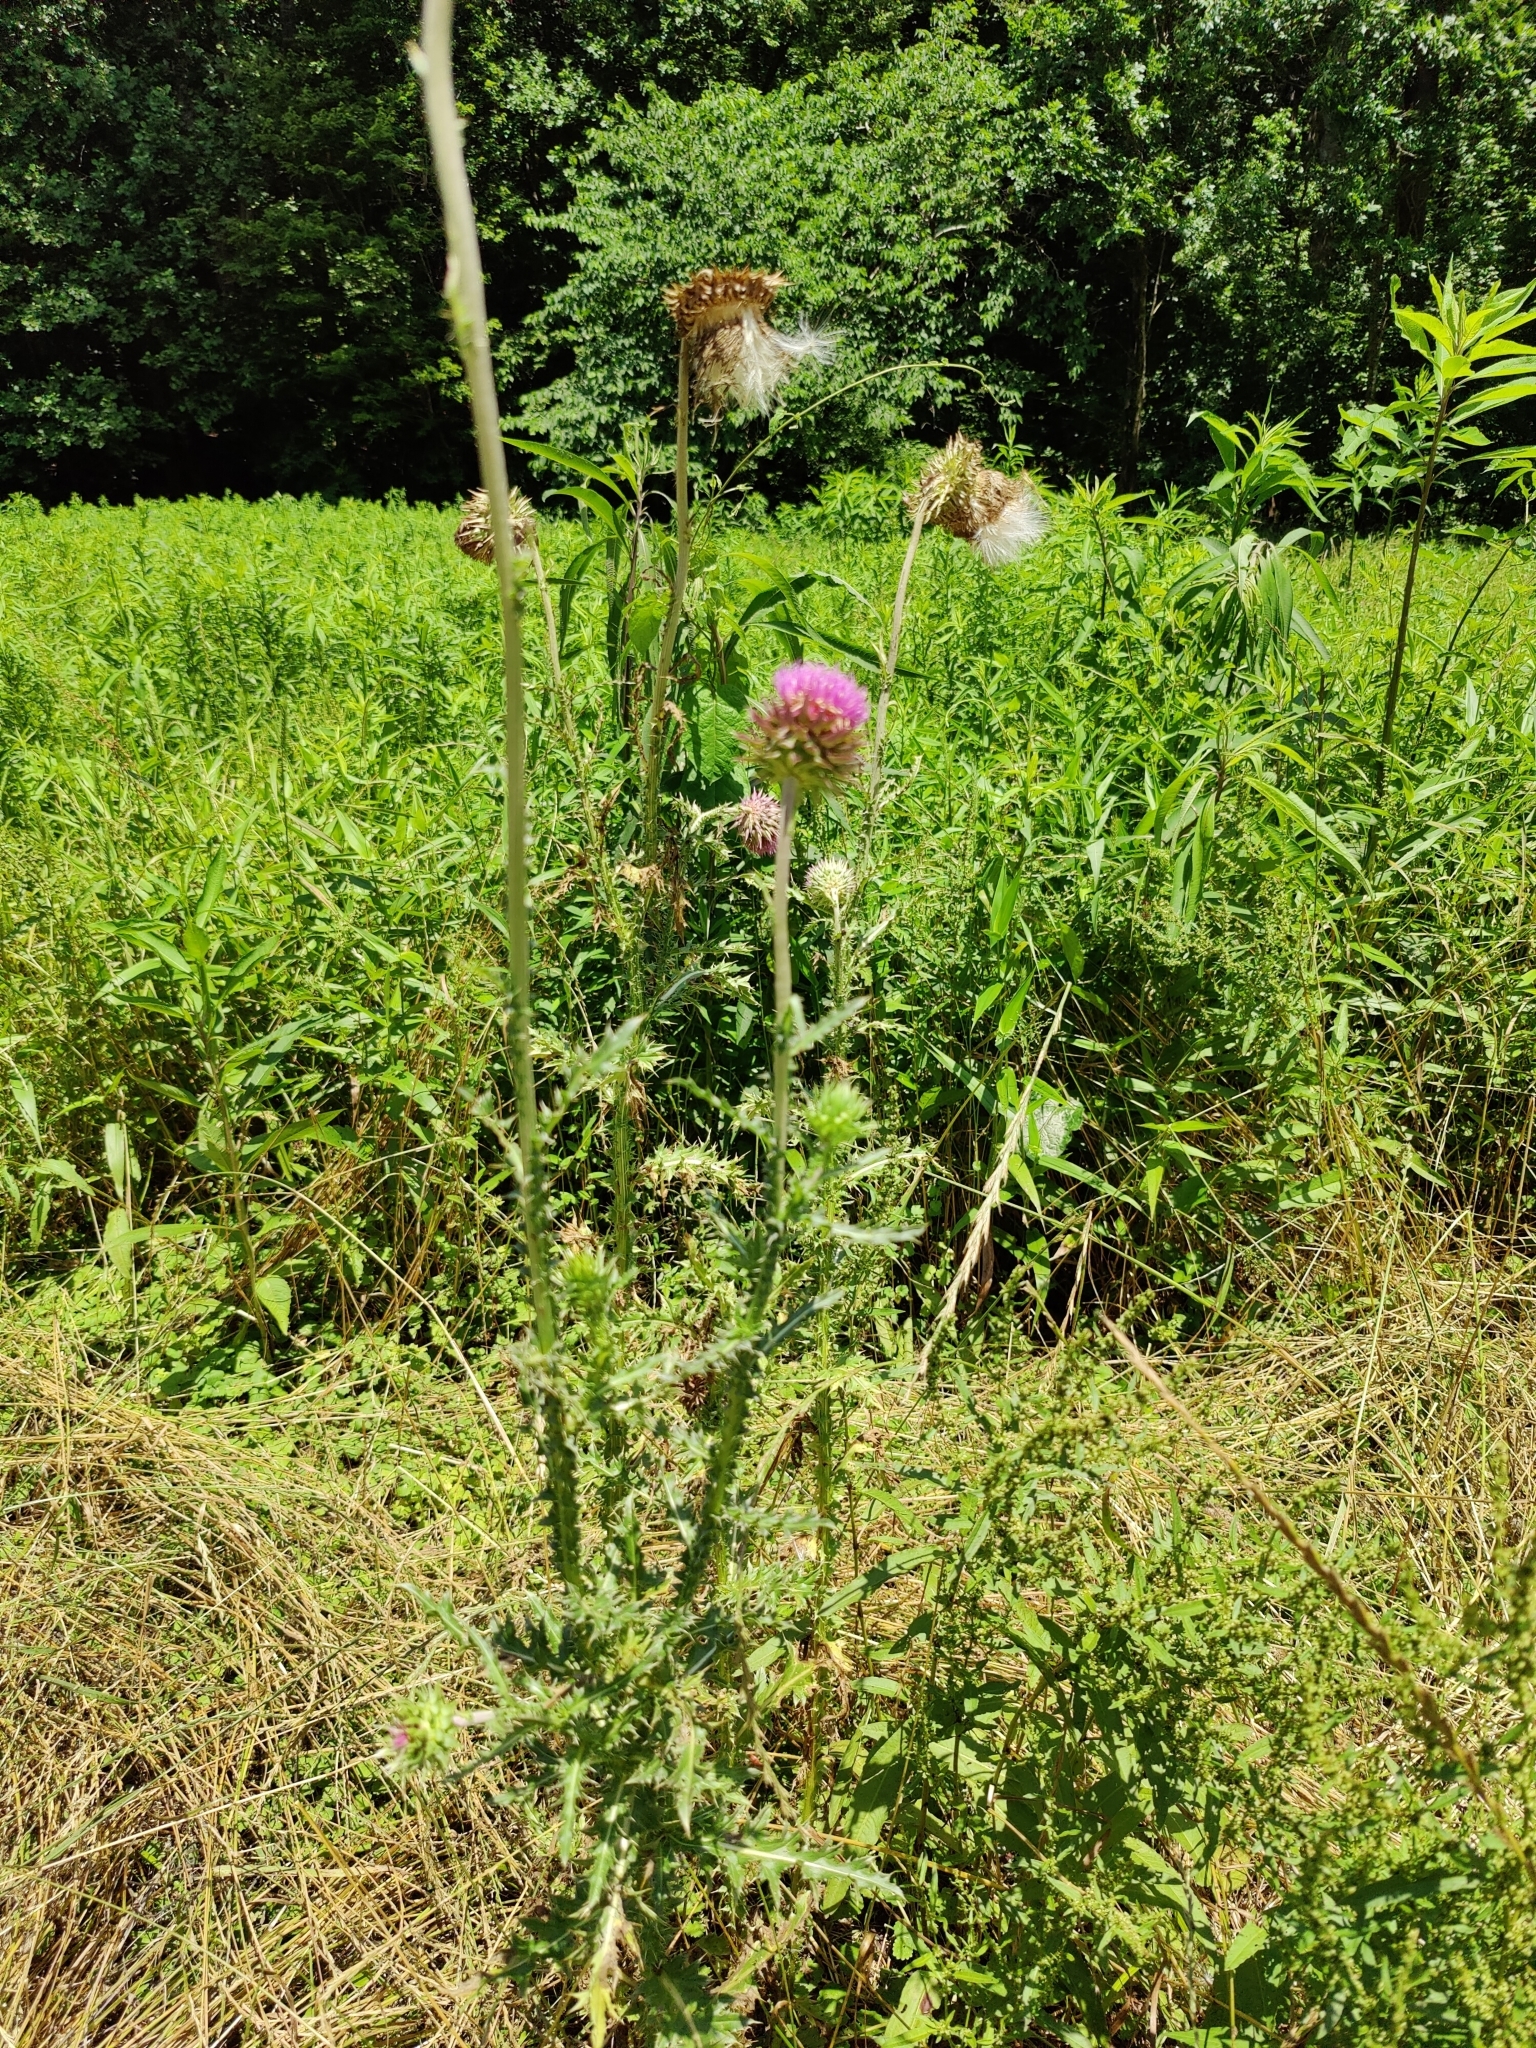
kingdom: Plantae
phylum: Tracheophyta
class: Magnoliopsida
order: Asterales
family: Asteraceae
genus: Carduus
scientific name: Carduus nutans
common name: Musk thistle
